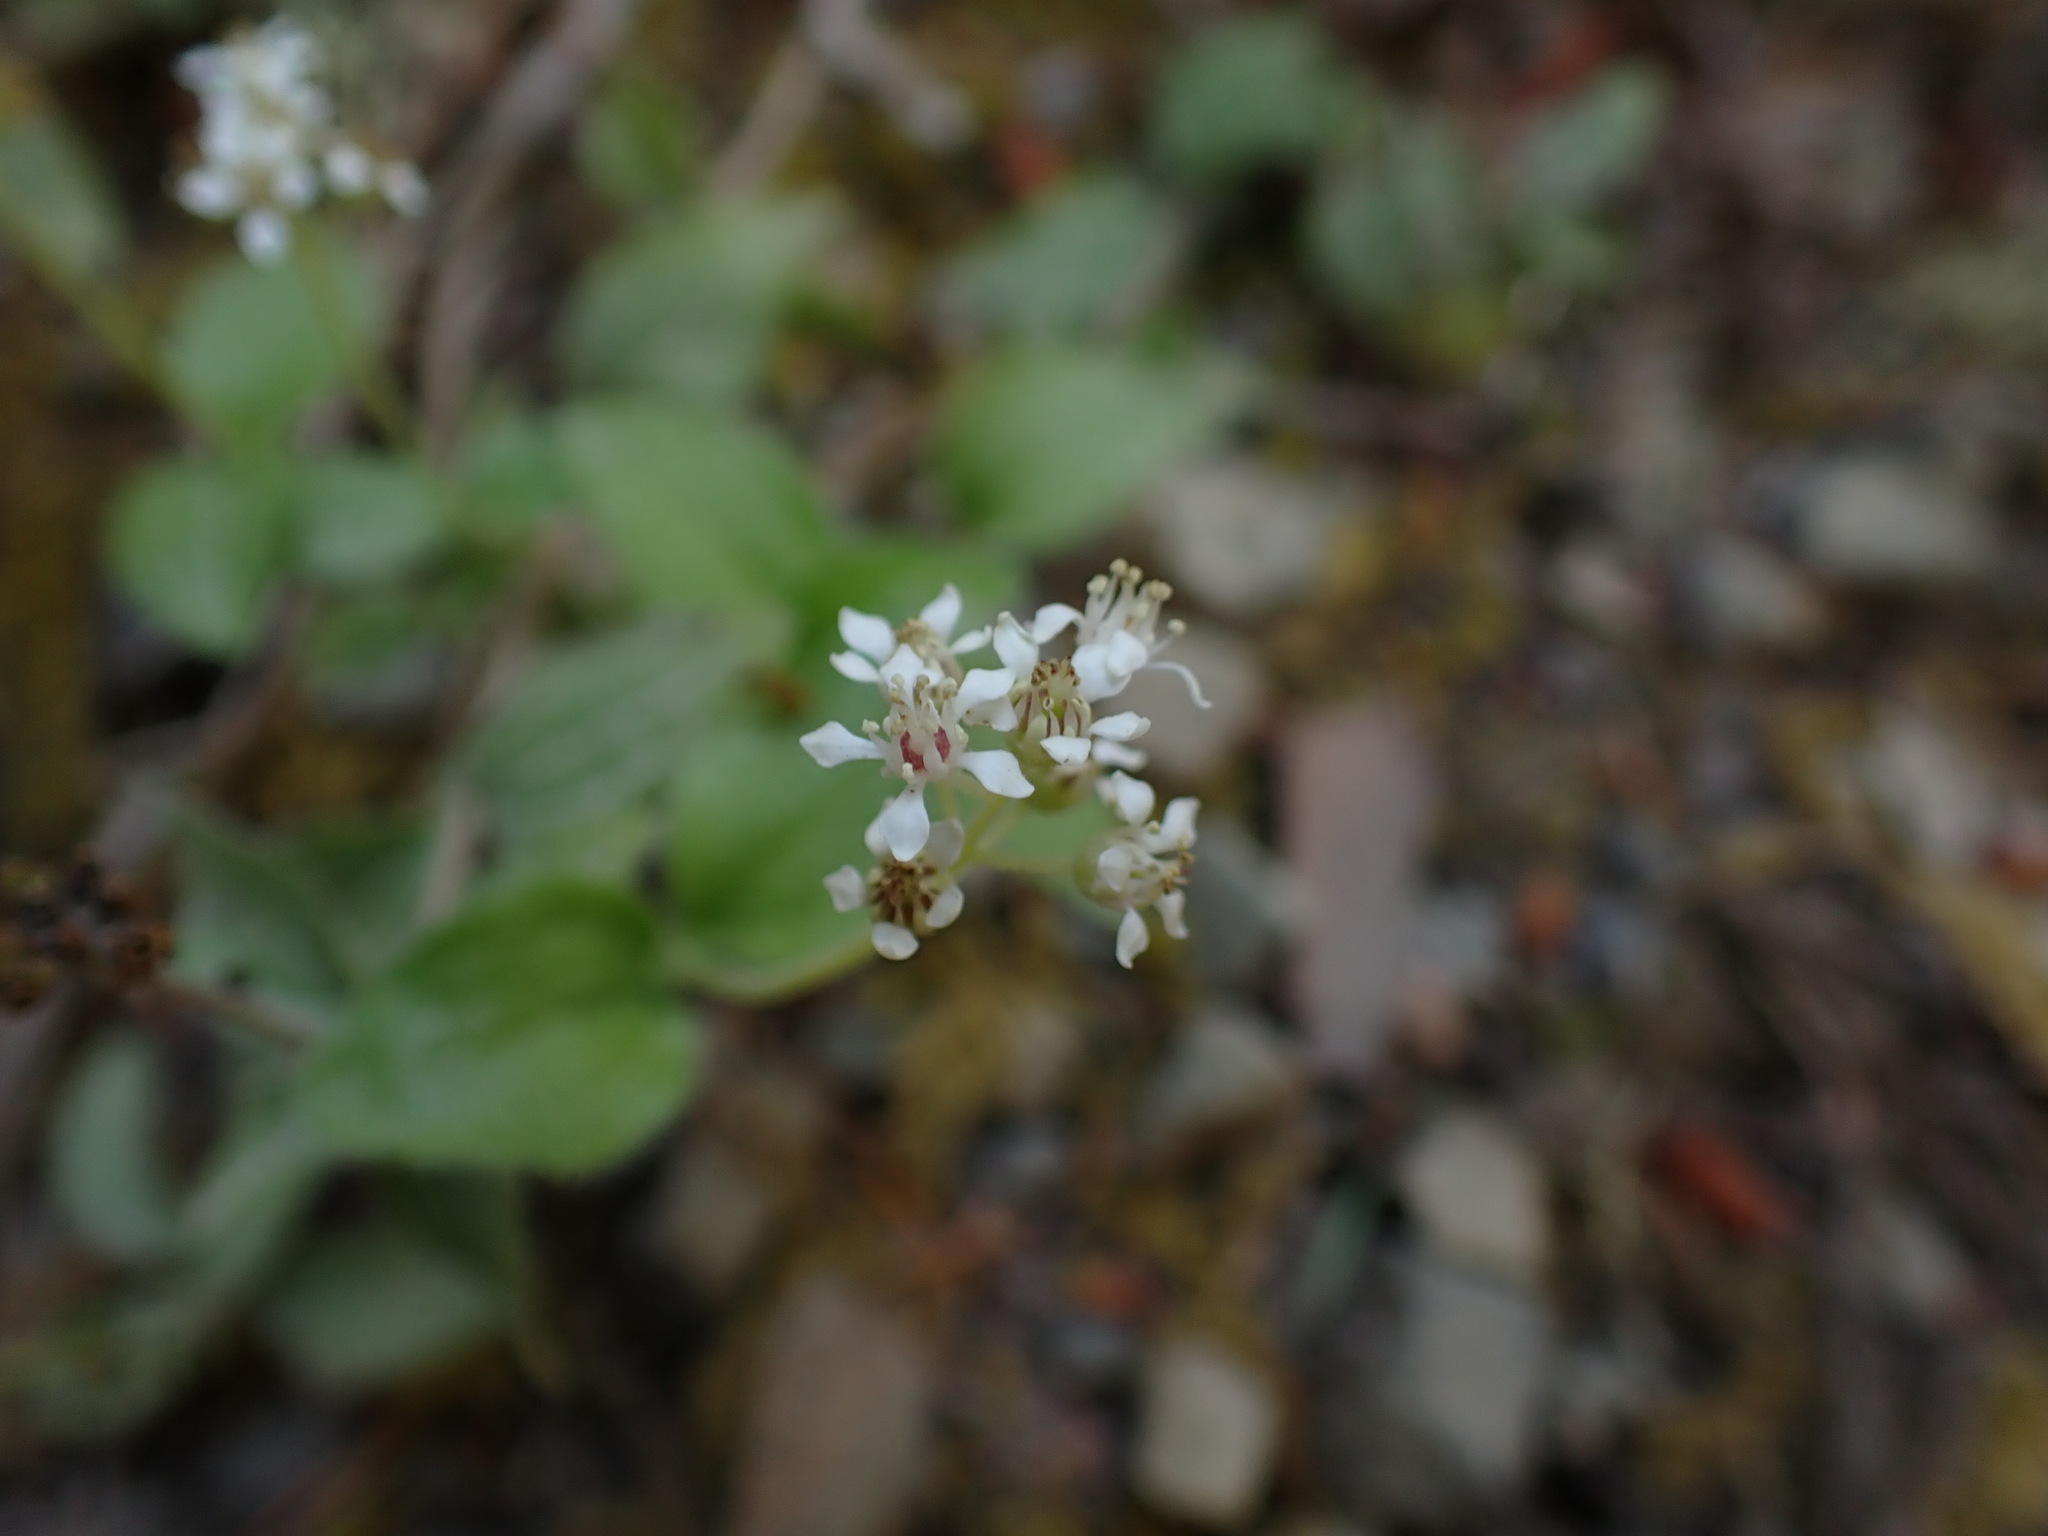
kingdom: Plantae
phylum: Tracheophyta
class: Magnoliopsida
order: Cornales
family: Hydrangeaceae
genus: Whipplea
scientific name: Whipplea modesta
